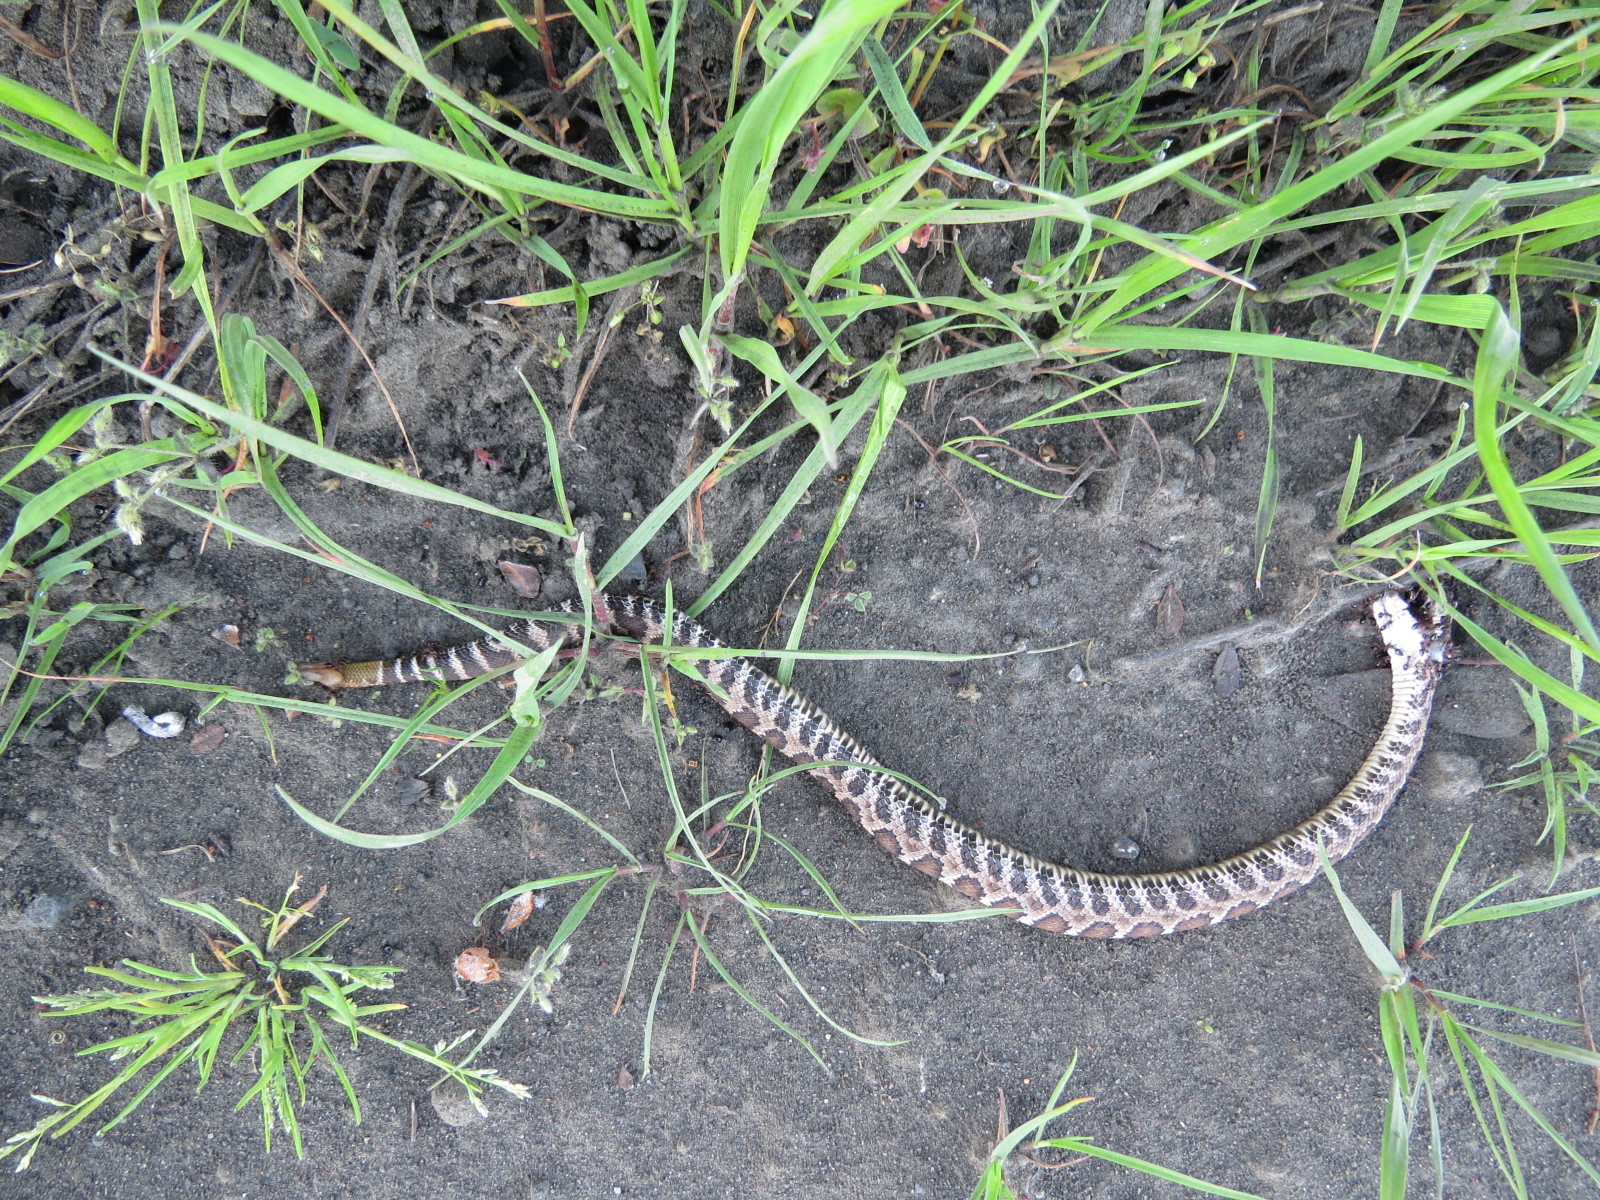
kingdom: Animalia
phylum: Chordata
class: Squamata
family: Viperidae
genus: Crotalus
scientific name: Crotalus oreganus
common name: Abyssus
